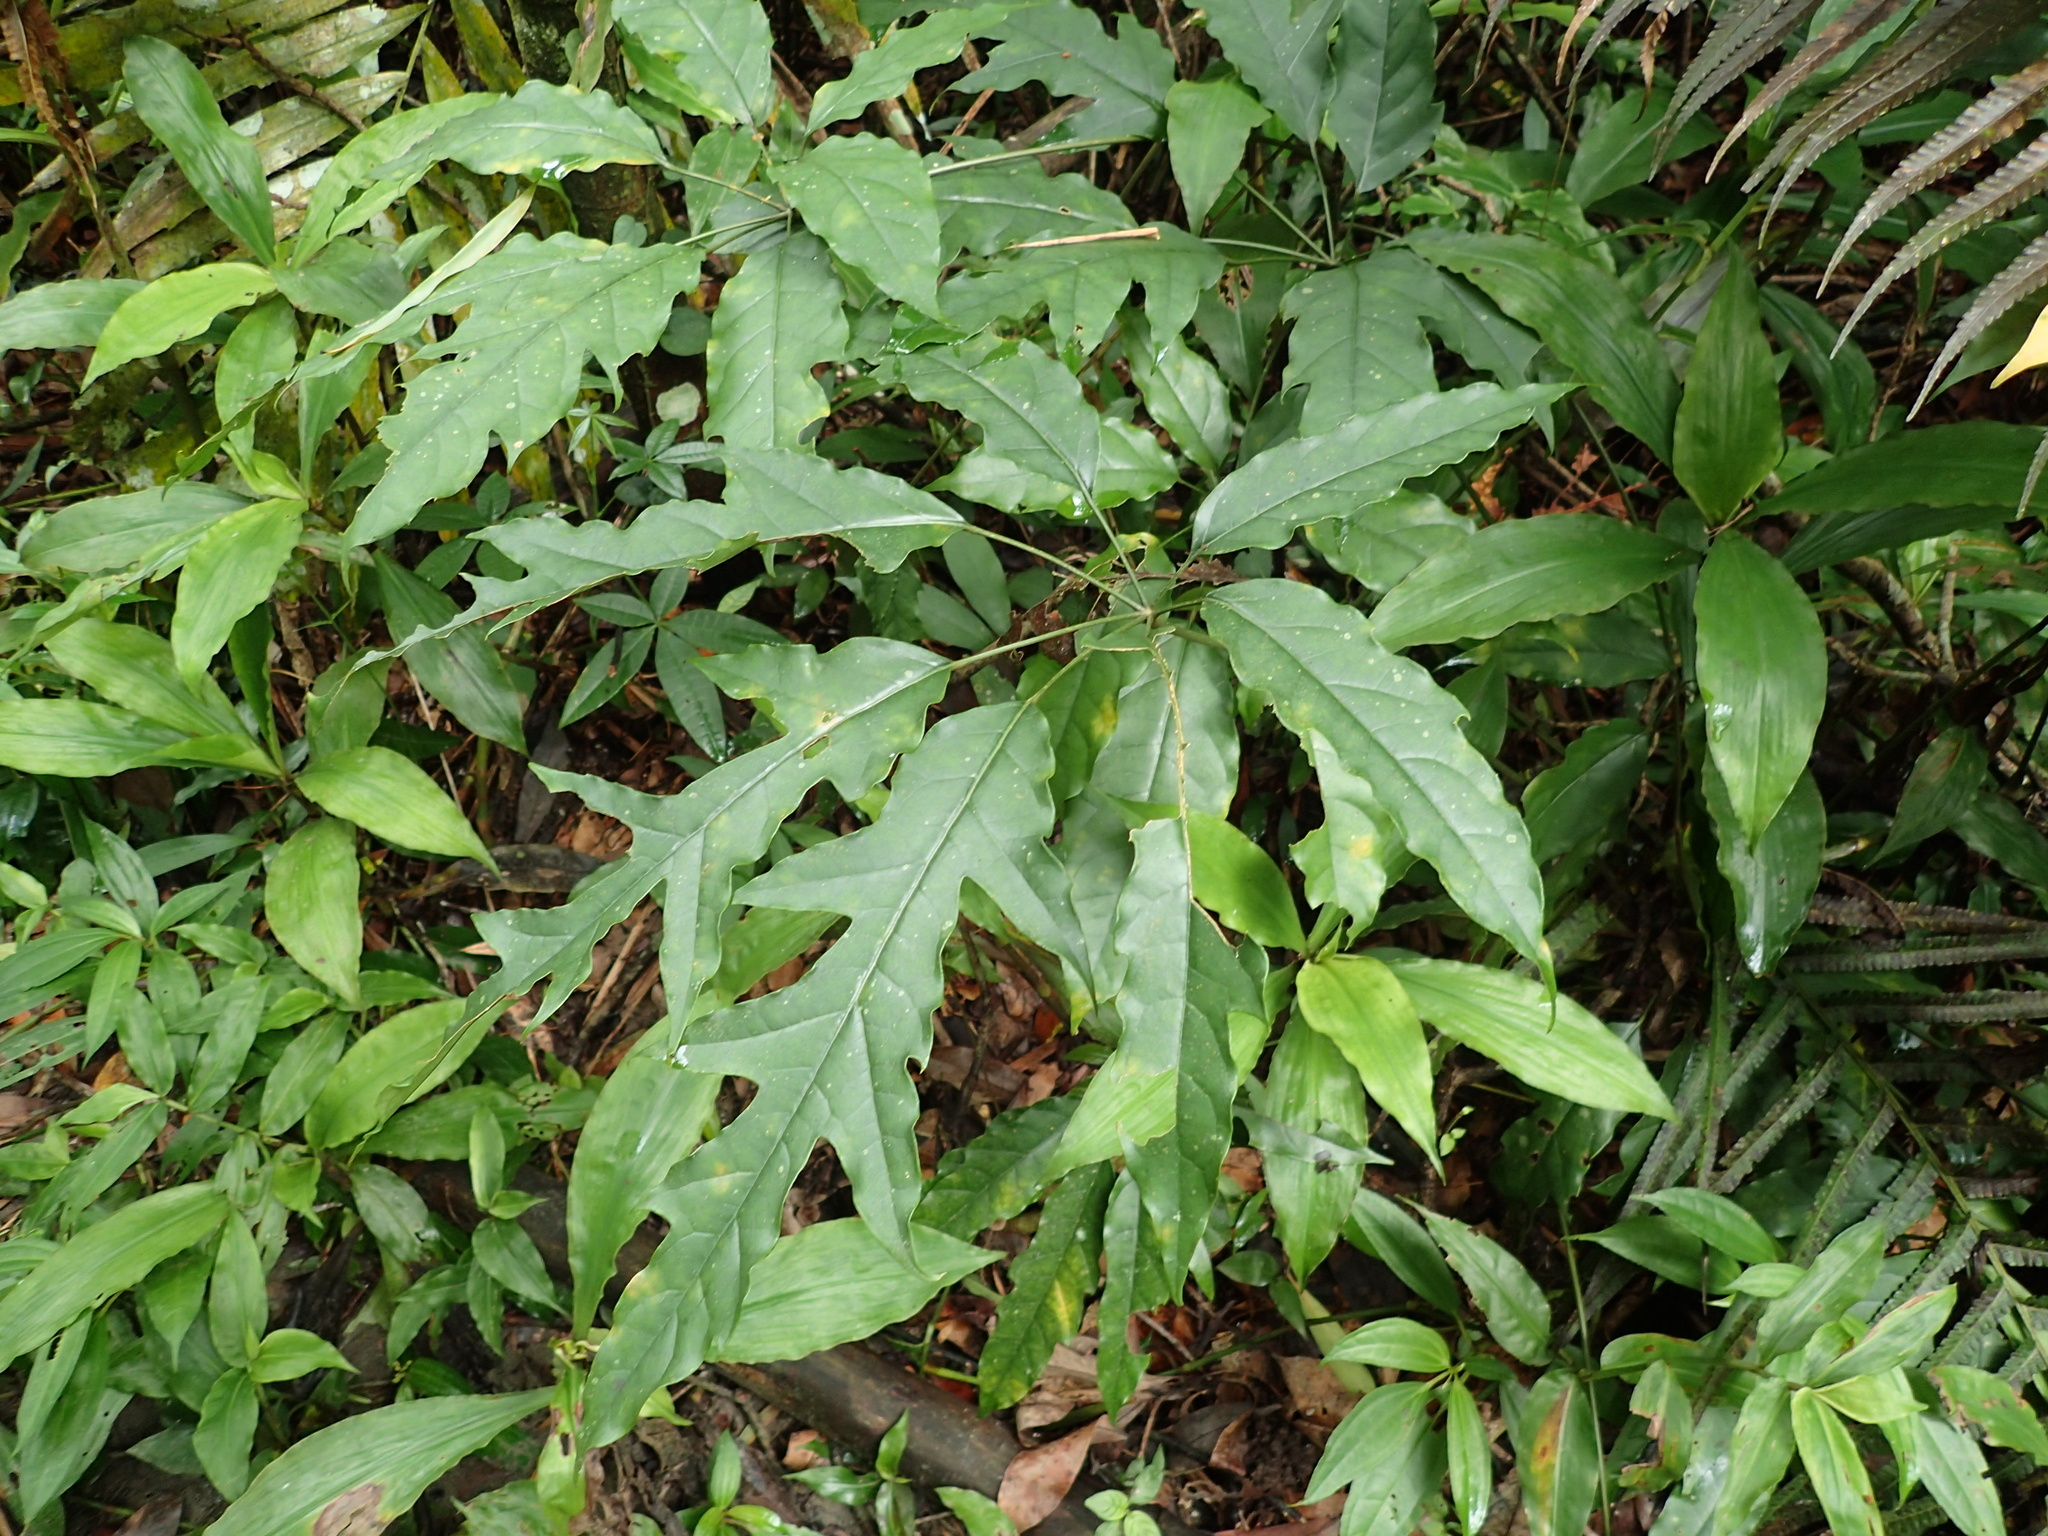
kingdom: Plantae
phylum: Tracheophyta
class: Magnoliopsida
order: Apiales
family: Araliaceae
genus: Heptapleurum
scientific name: Heptapleurum heptaphyllum
